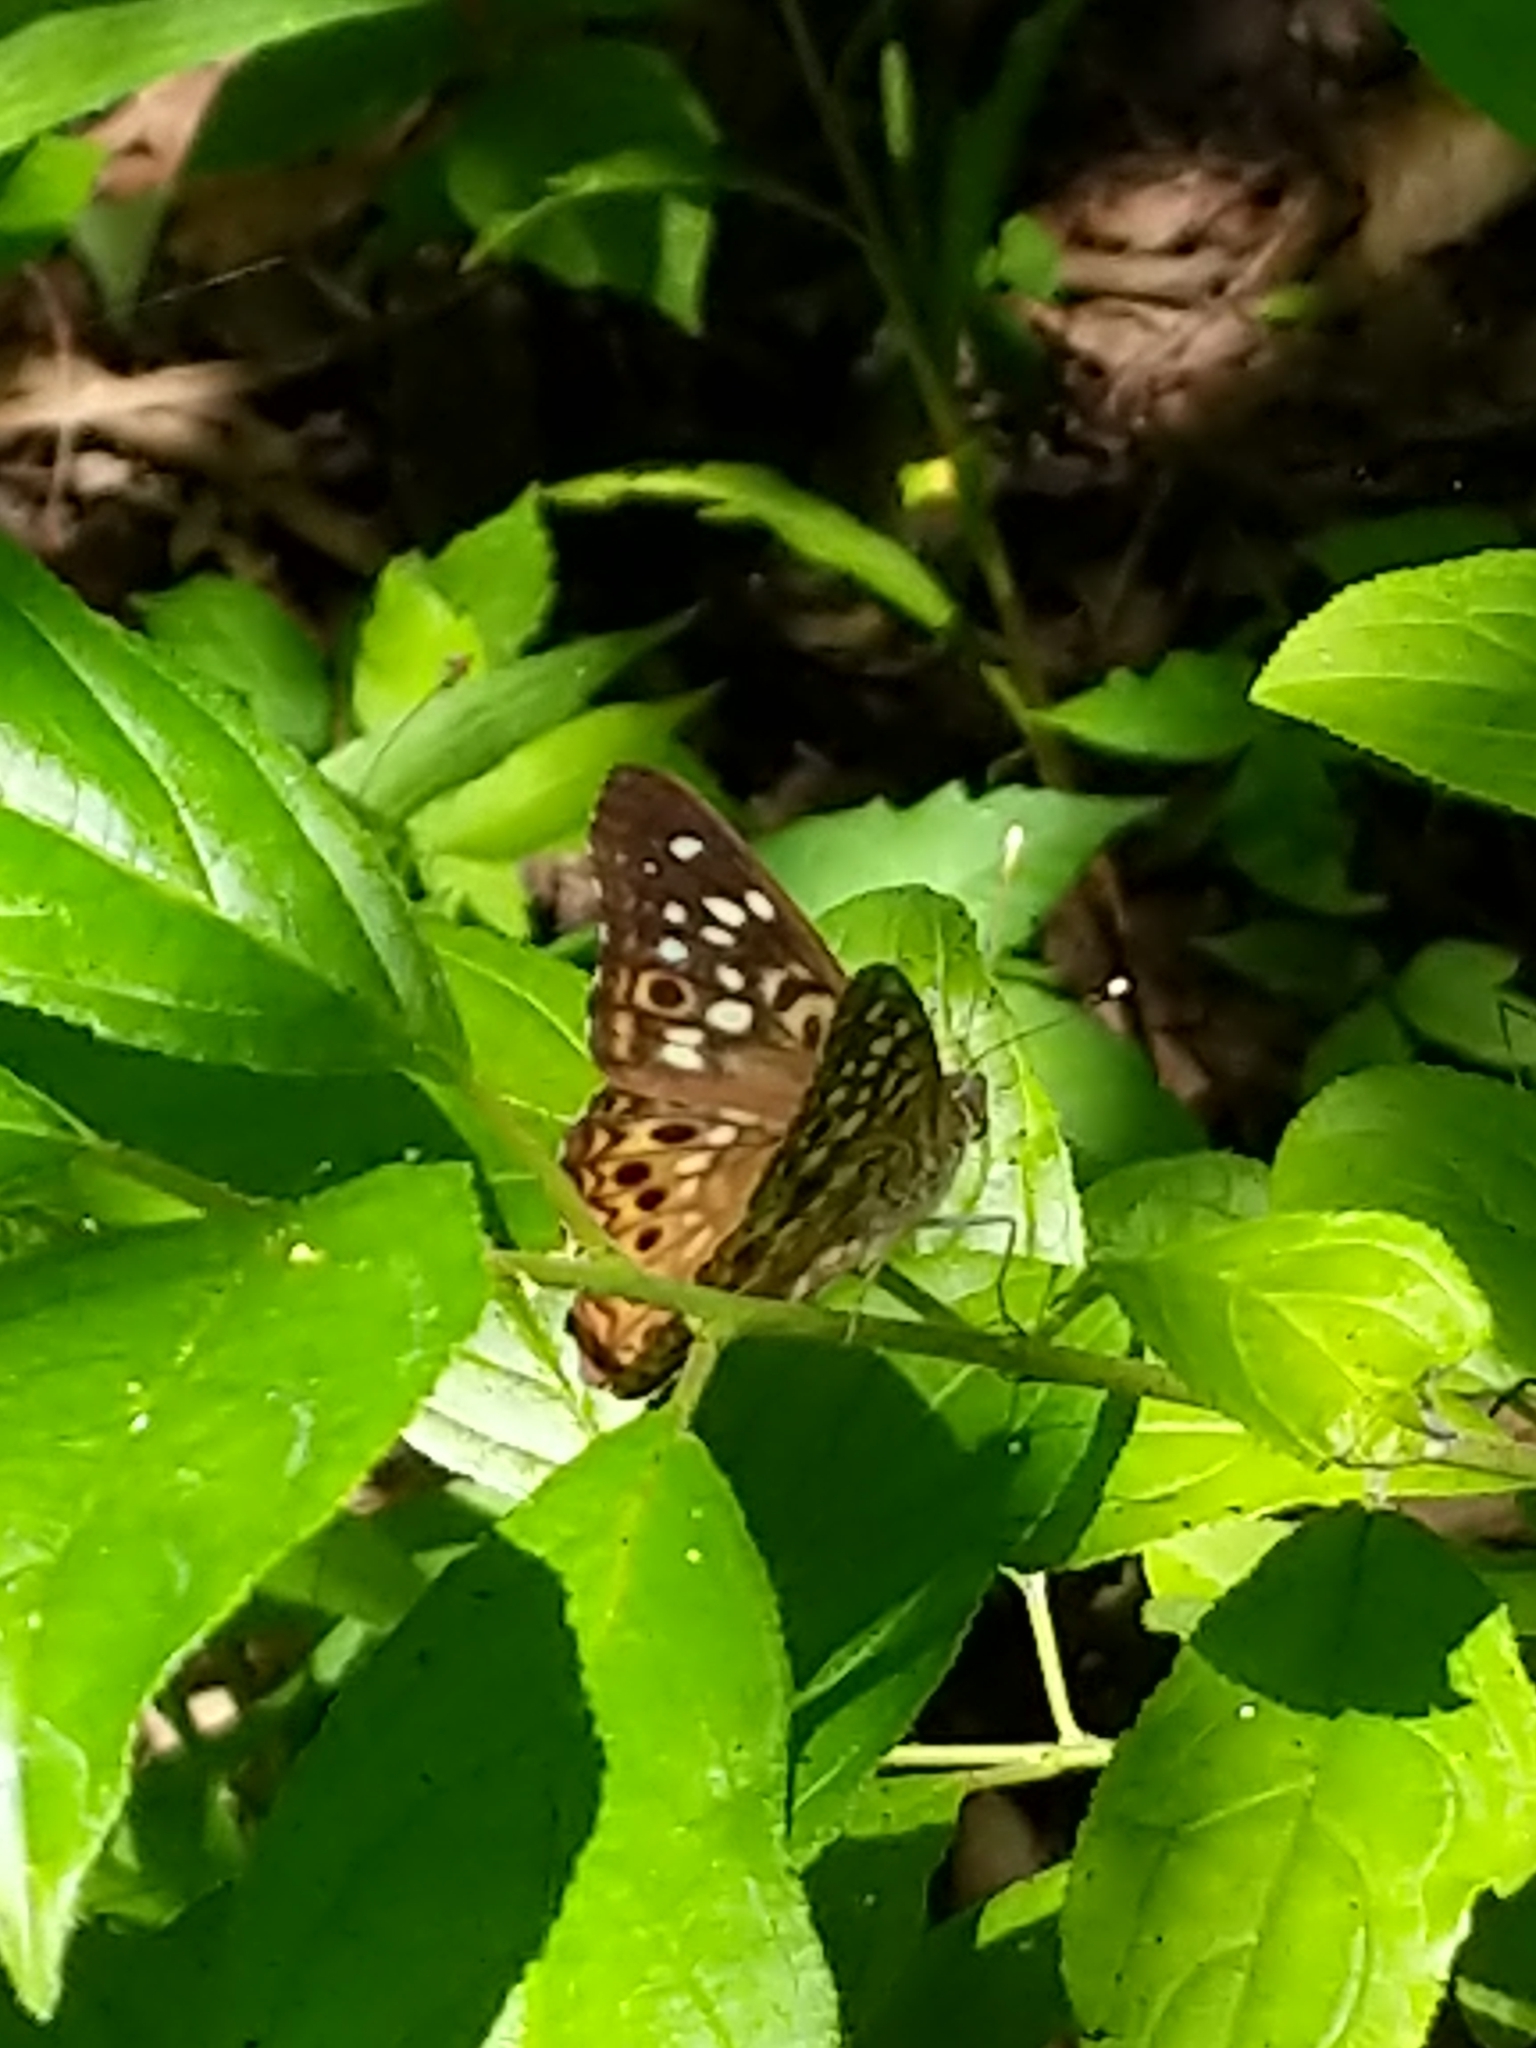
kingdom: Animalia
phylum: Arthropoda
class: Insecta
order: Lepidoptera
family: Nymphalidae
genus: Asterocampa
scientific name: Asterocampa celtis
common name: Hackberry emperor
